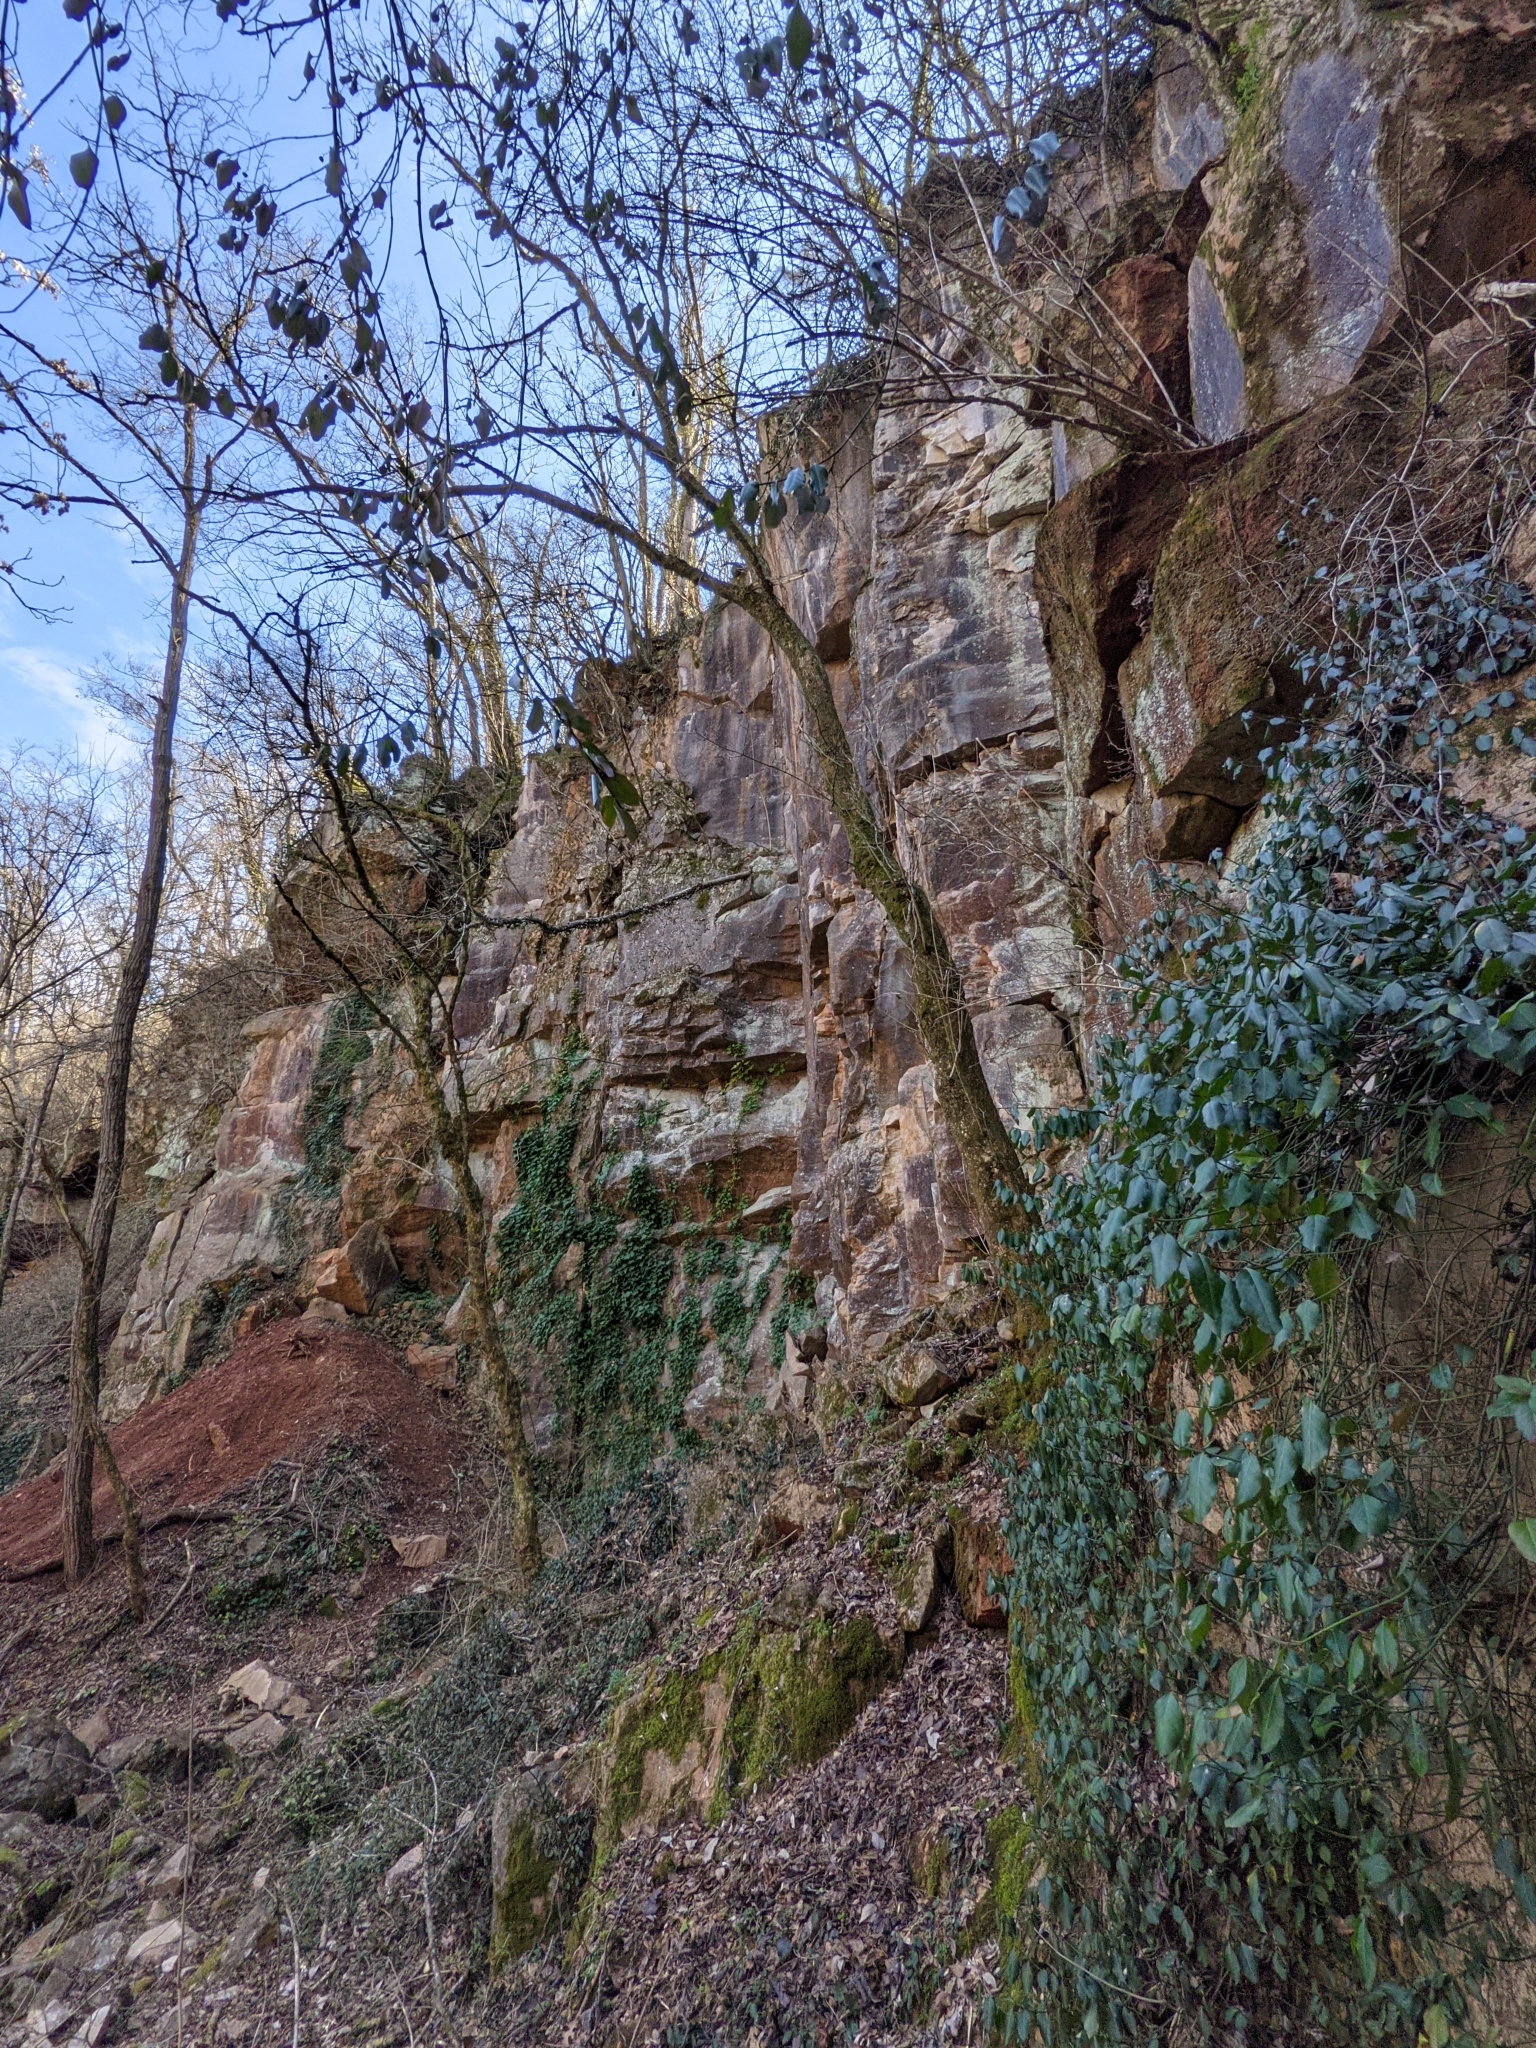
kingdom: Plantae
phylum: Tracheophyta
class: Magnoliopsida
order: Celastrales
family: Celastraceae
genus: Euonymus
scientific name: Euonymus fortunei
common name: Climbing euonymus
